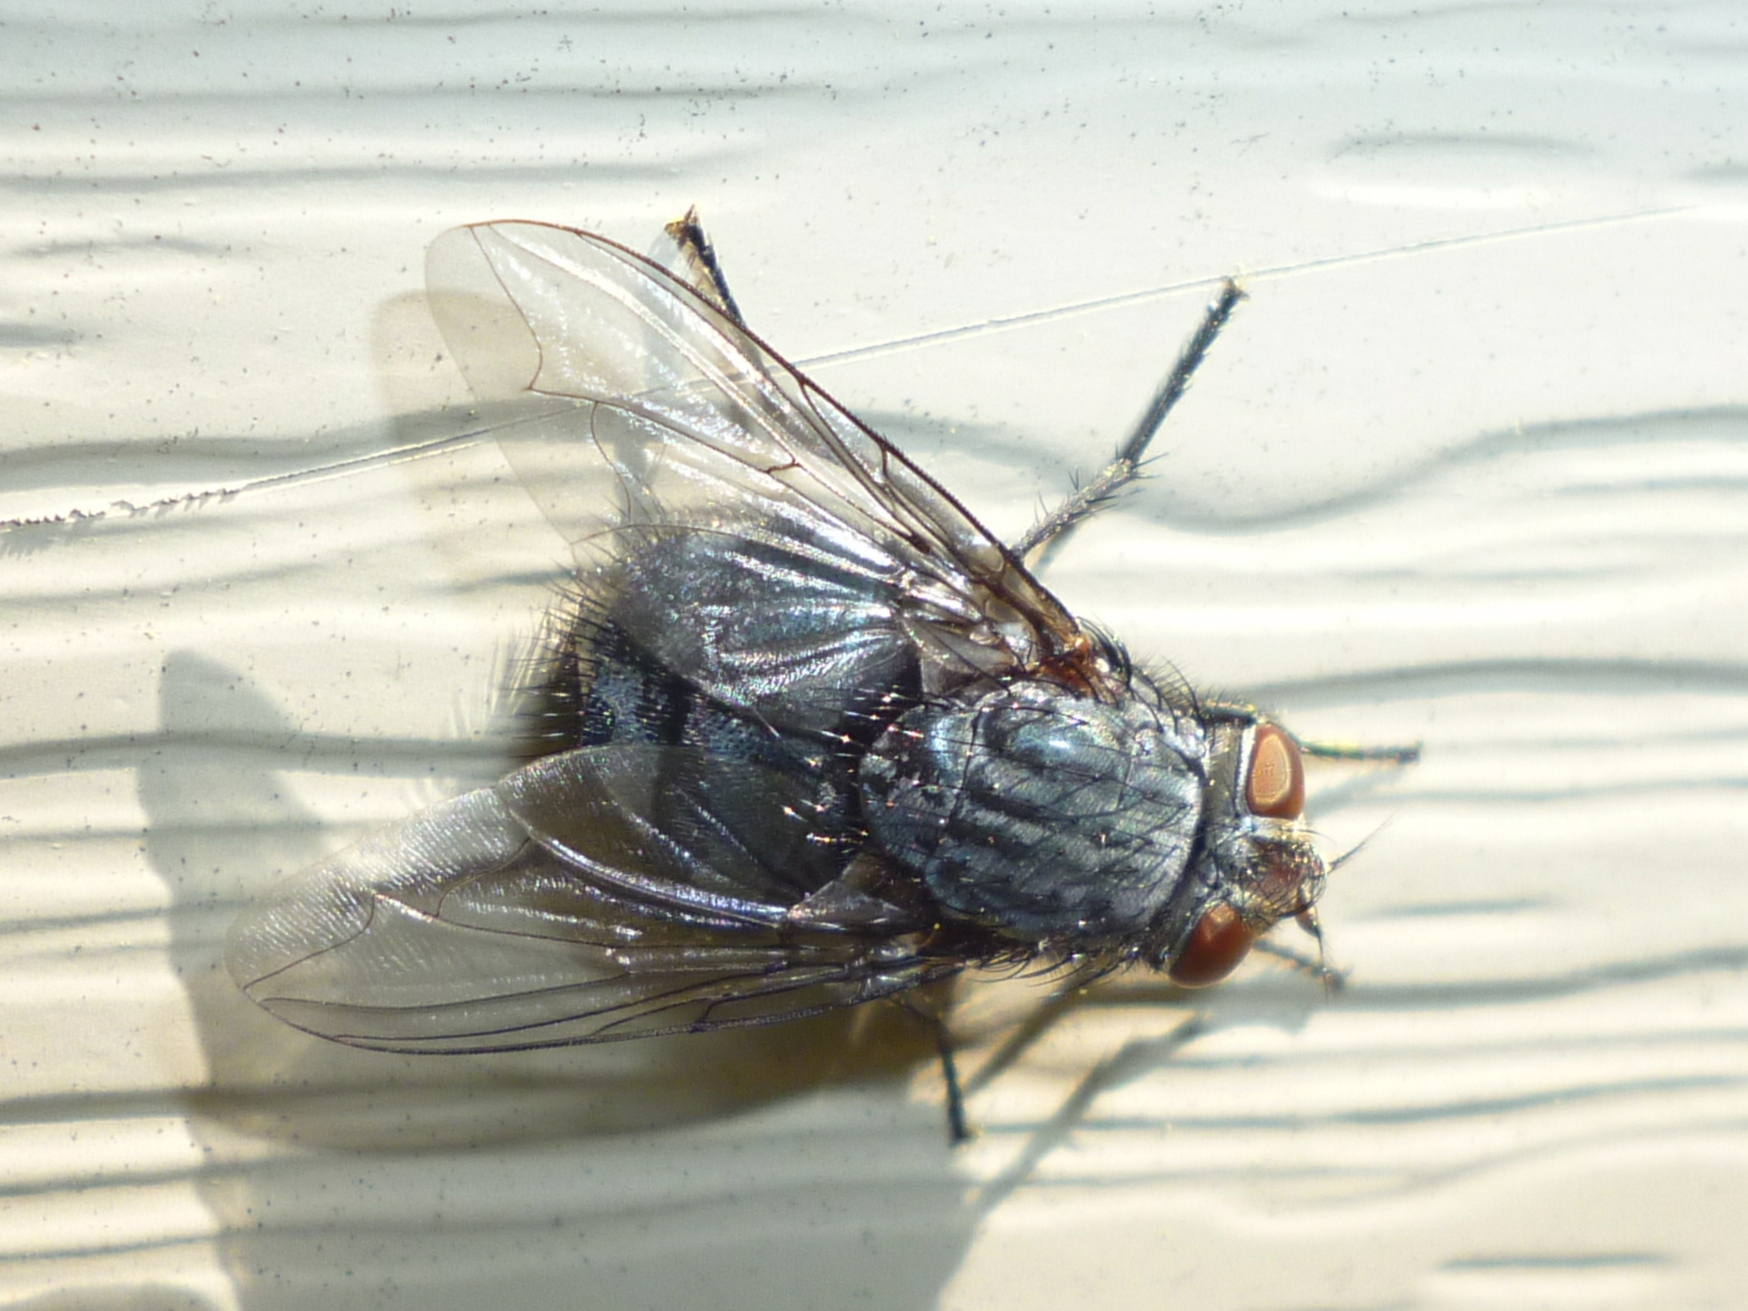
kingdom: Animalia
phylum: Arthropoda
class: Insecta
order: Diptera
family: Calliphoridae
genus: Calliphora
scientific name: Calliphora vicina
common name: Common blow flie
